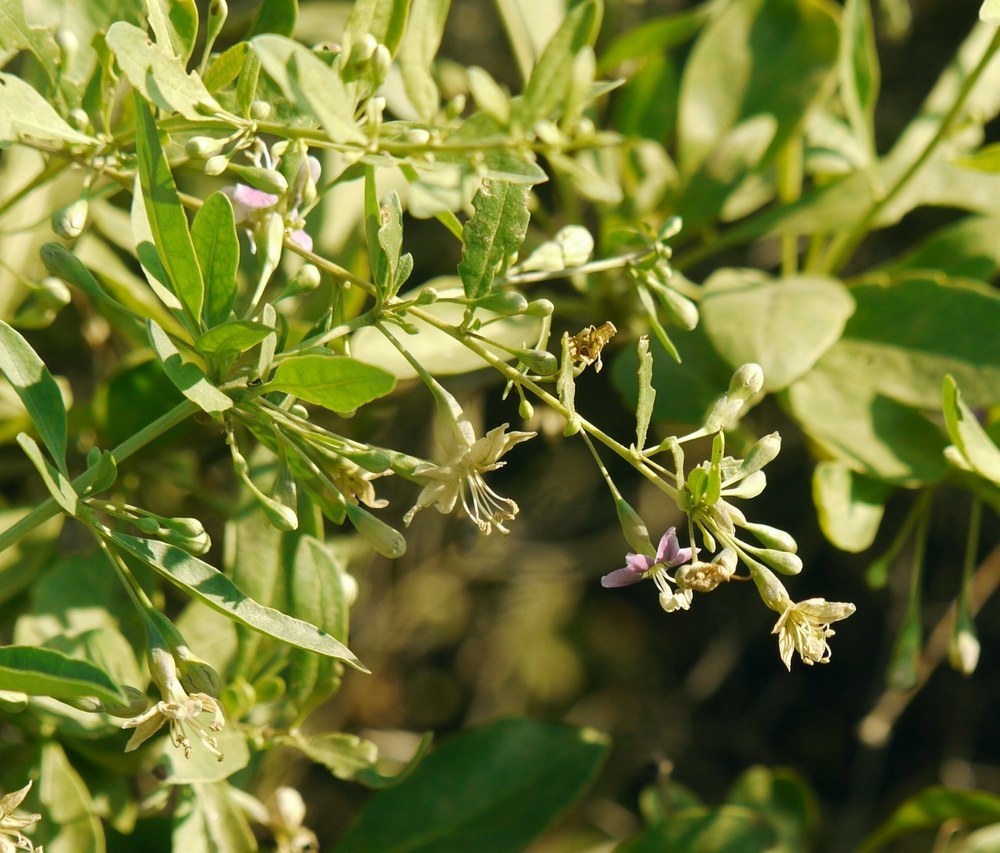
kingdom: Plantae
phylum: Tracheophyta
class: Magnoliopsida
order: Solanales
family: Solanaceae
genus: Lycium
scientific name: Lycium barbarum
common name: Duke of argyll's teaplant
